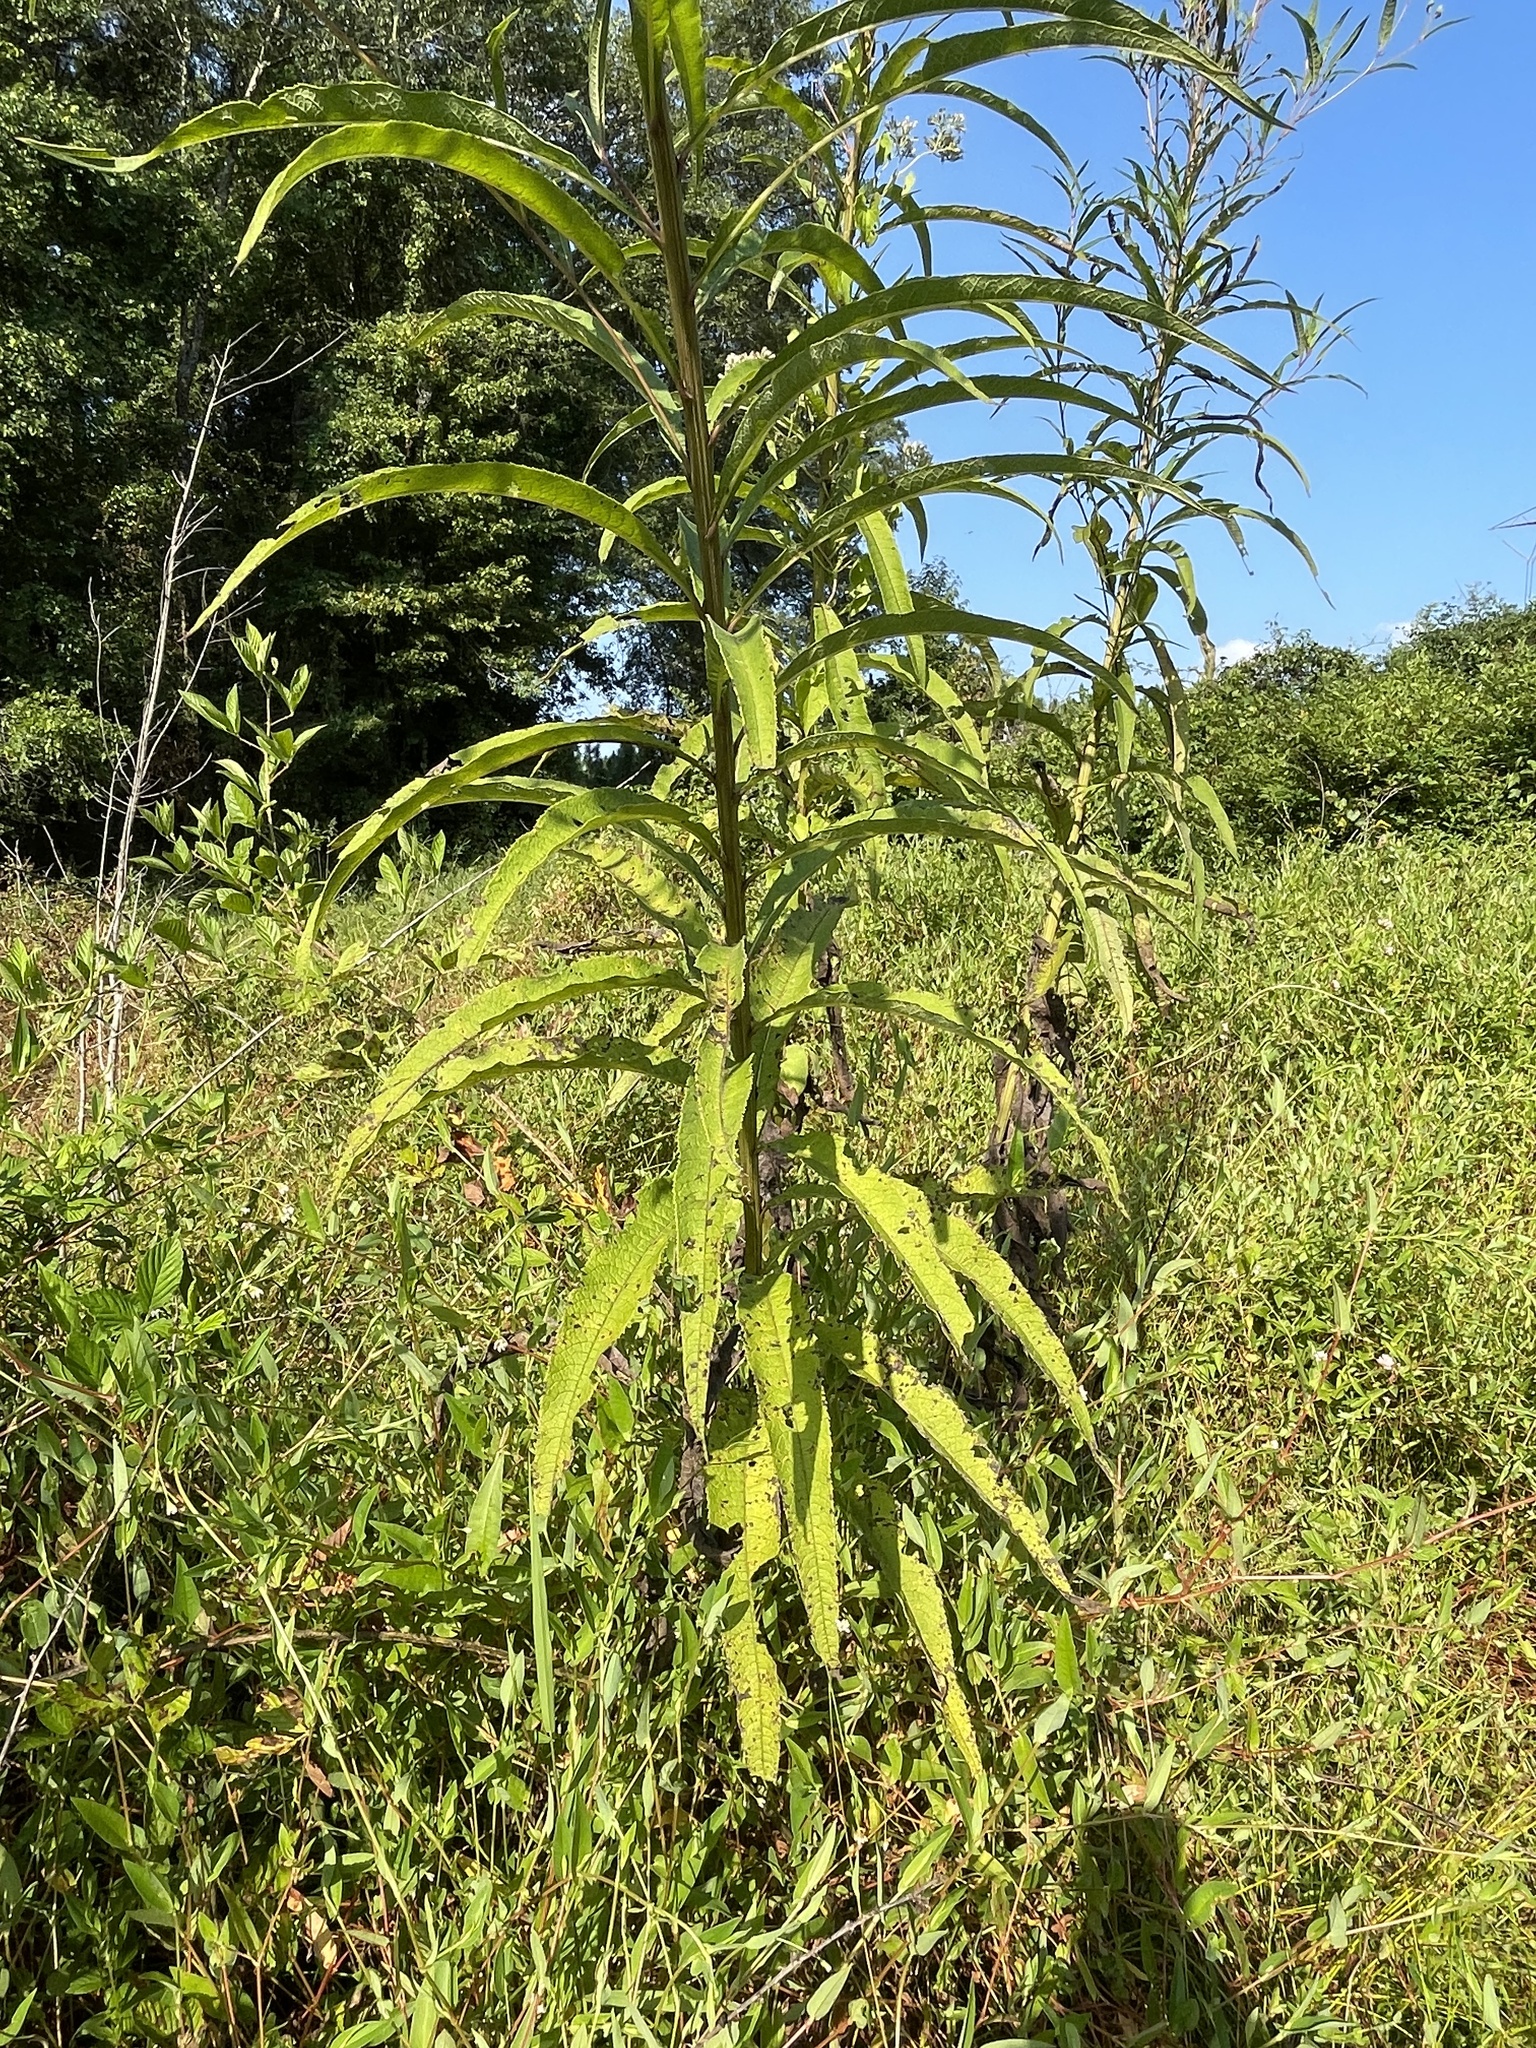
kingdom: Plantae
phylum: Tracheophyta
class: Magnoliopsida
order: Asterales
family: Asteraceae
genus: Vernonia
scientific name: Vernonia noveboracensis
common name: New york ironweed
